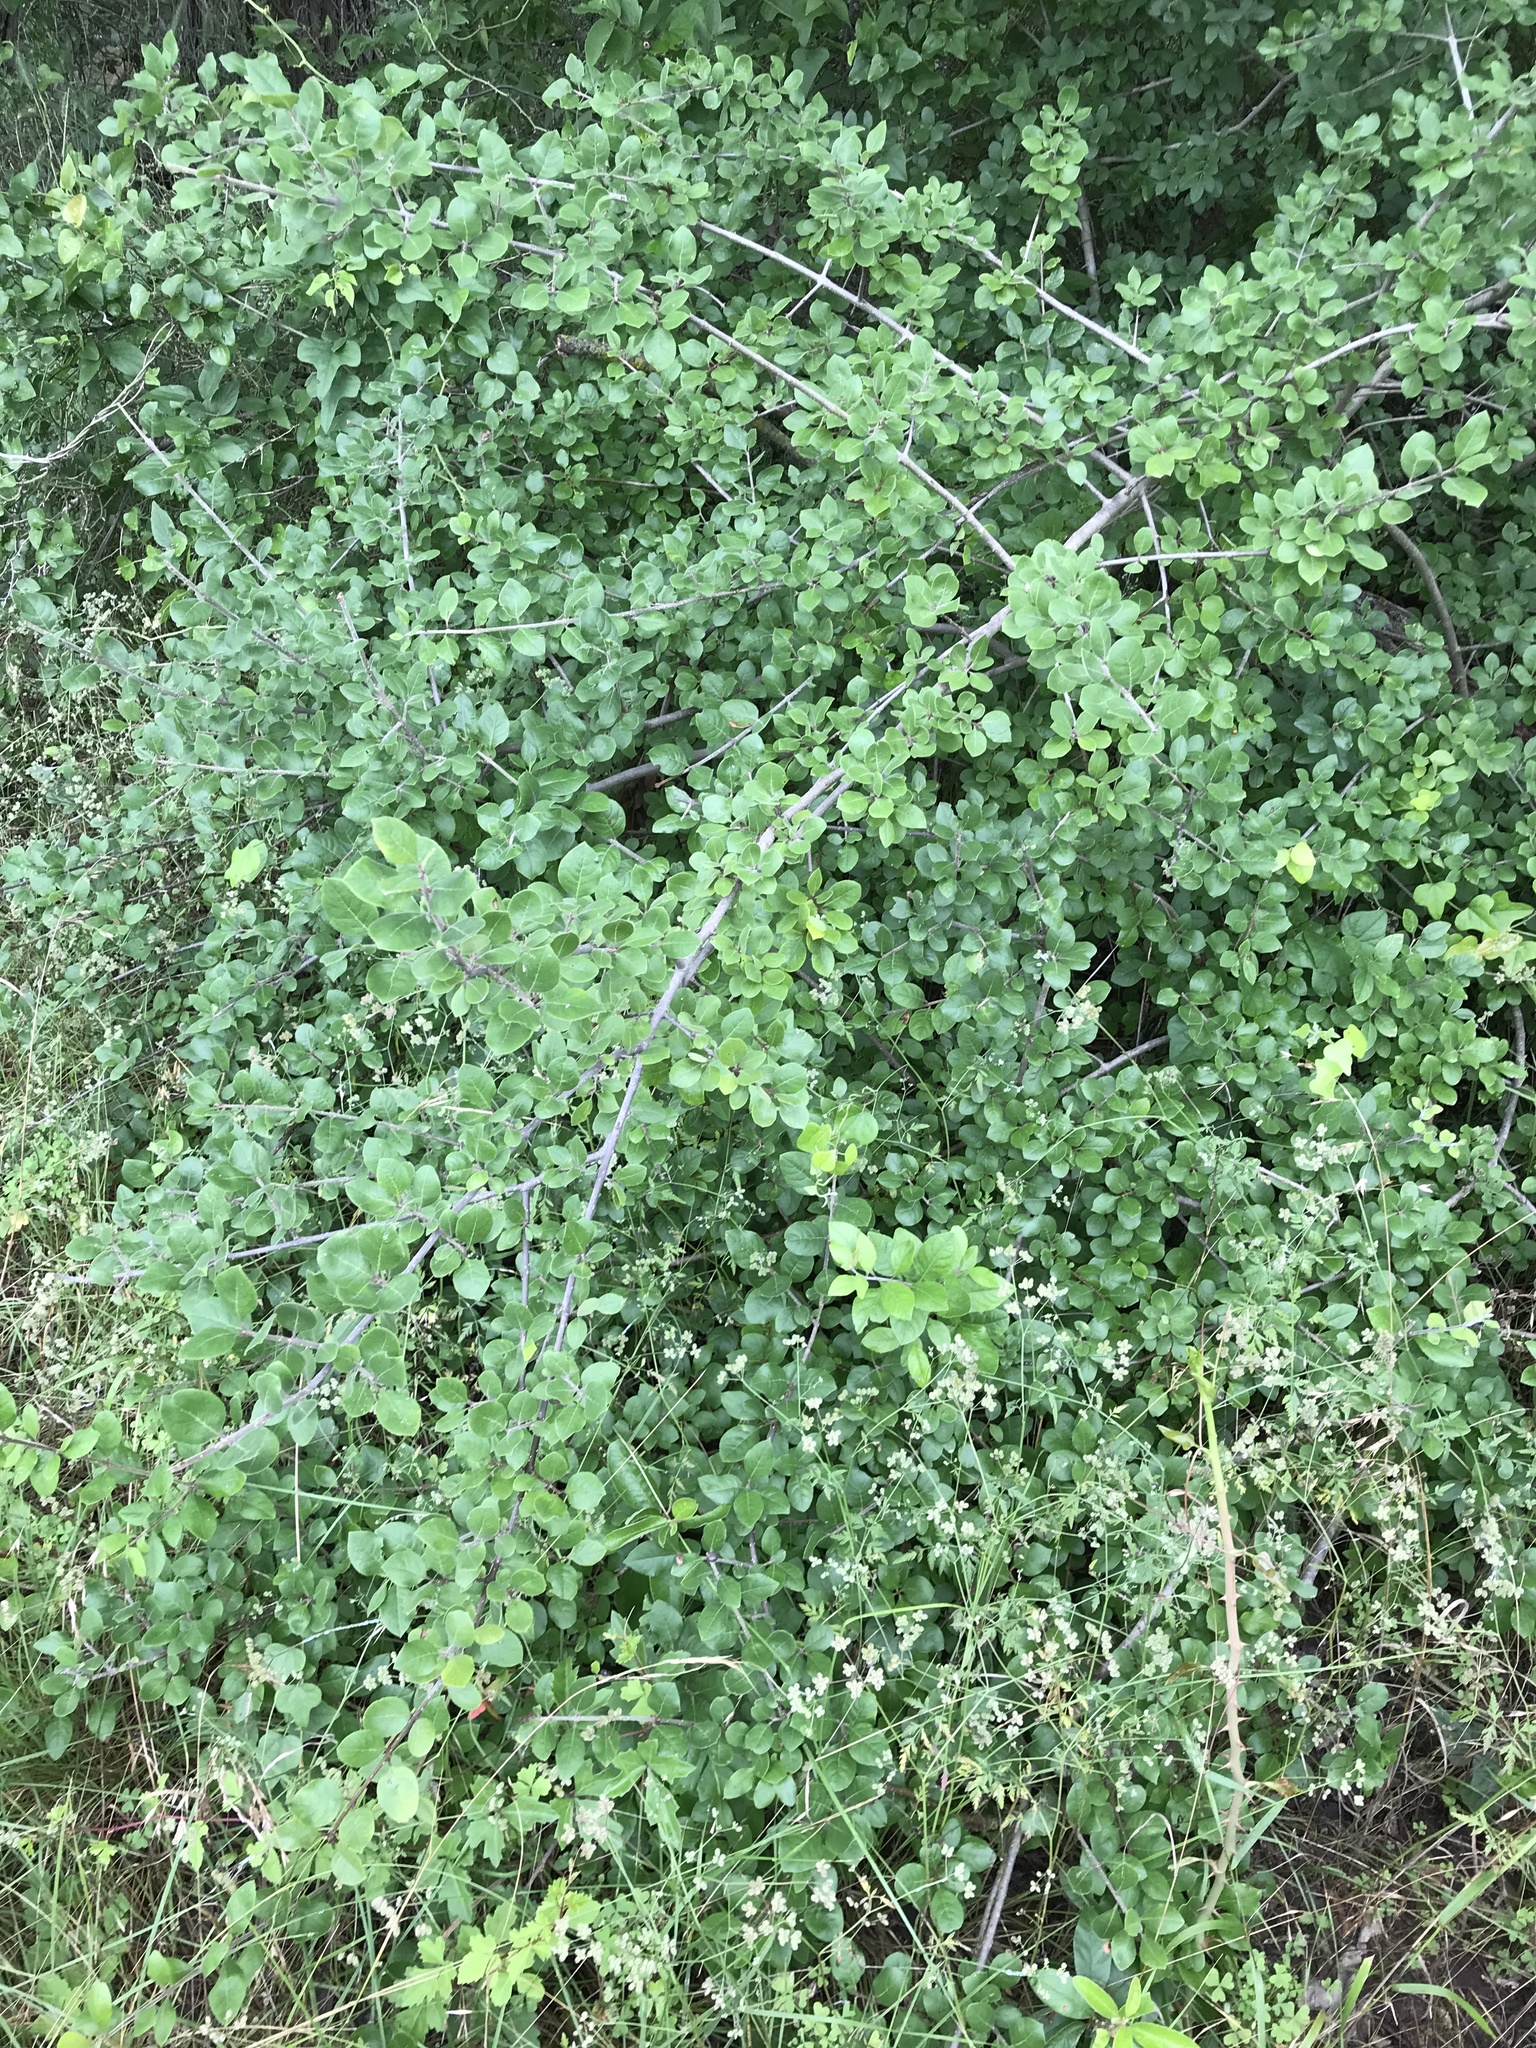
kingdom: Plantae
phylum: Tracheophyta
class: Magnoliopsida
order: Lamiales
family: Oleaceae
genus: Forestiera
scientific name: Forestiera pubescens
